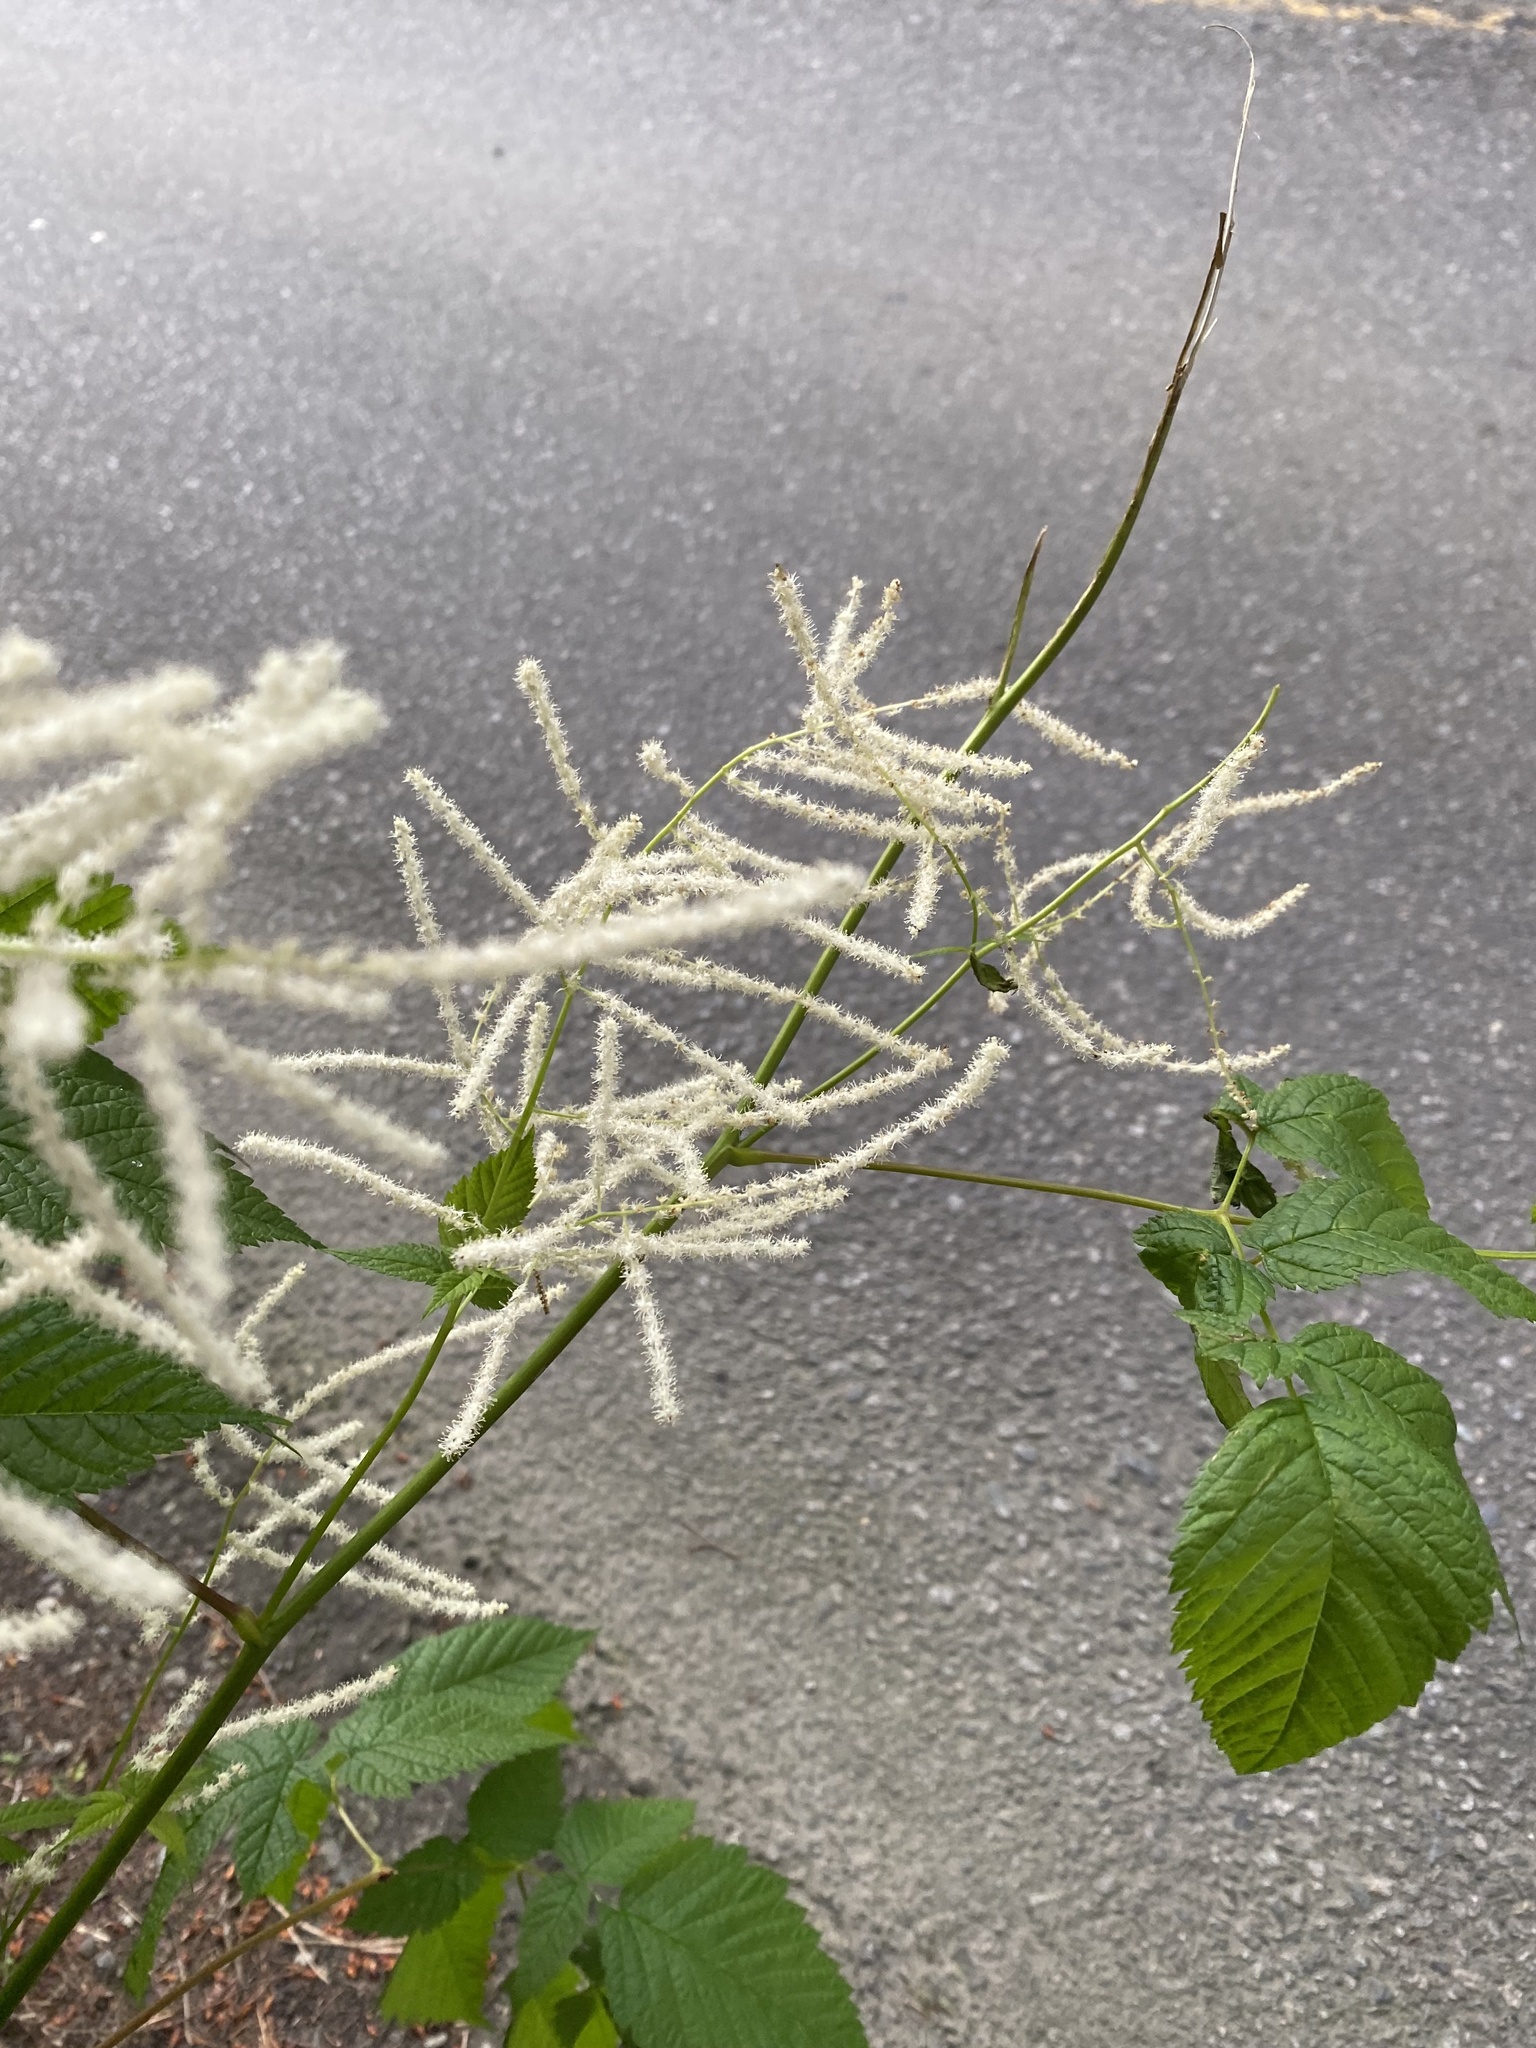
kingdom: Plantae
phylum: Tracheophyta
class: Magnoliopsida
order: Rosales
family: Rosaceae
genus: Aruncus
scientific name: Aruncus dioicus
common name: Buck's-beard
